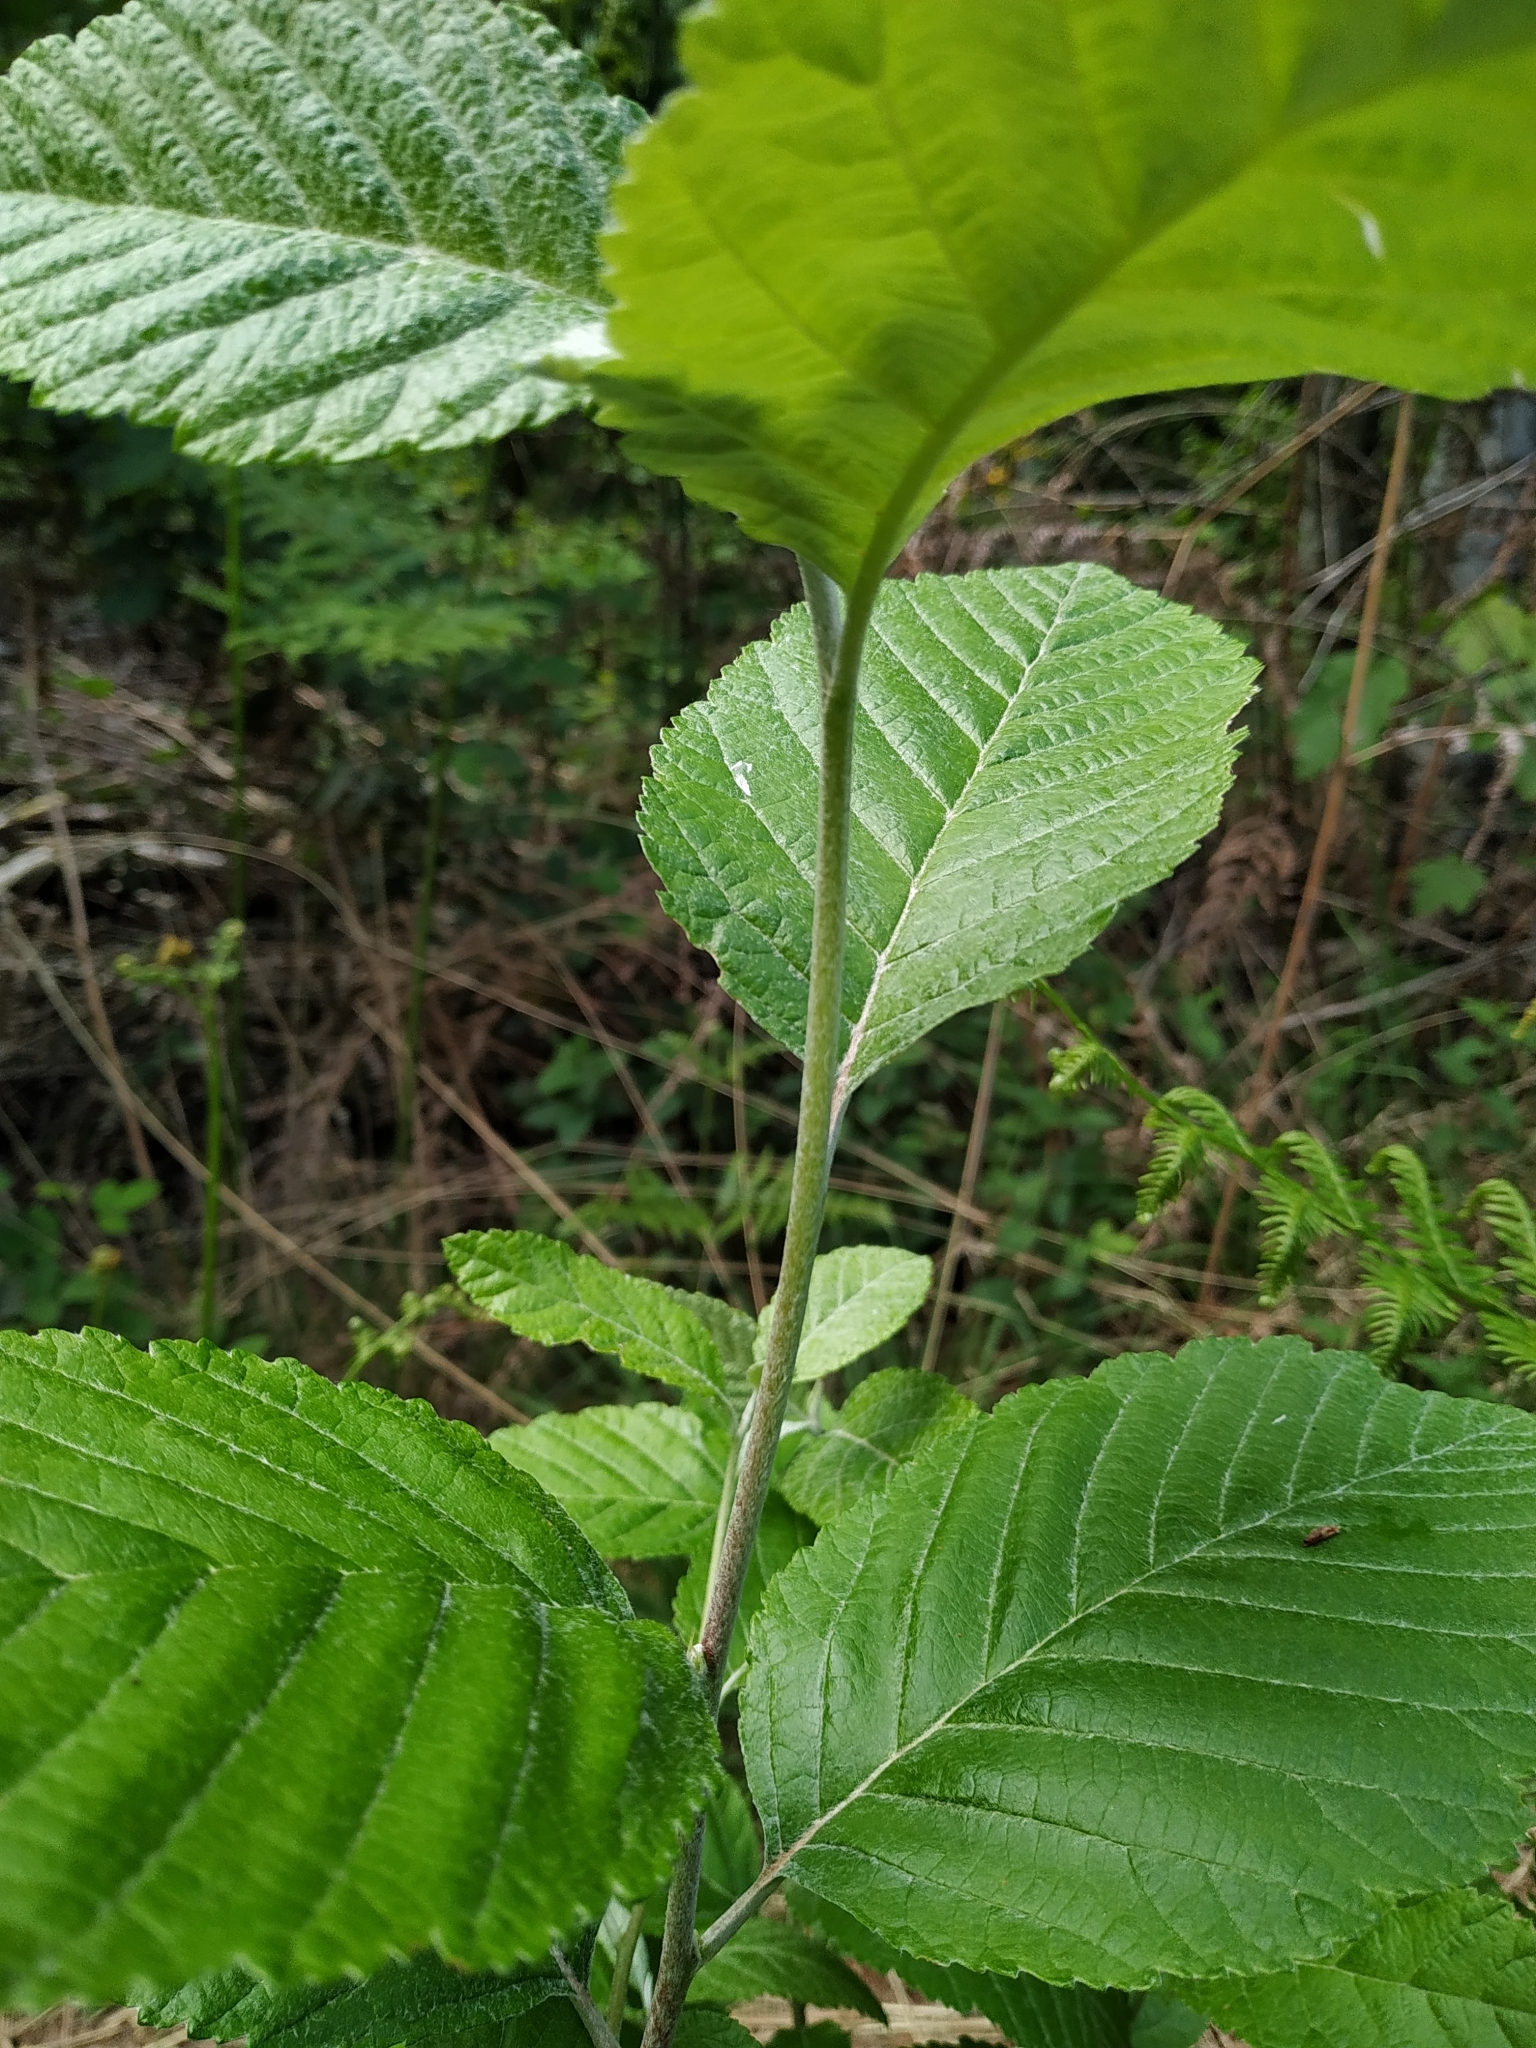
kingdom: Plantae
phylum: Tracheophyta
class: Magnoliopsida
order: Rosales
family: Rosaceae
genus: Aria
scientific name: Aria edulis
